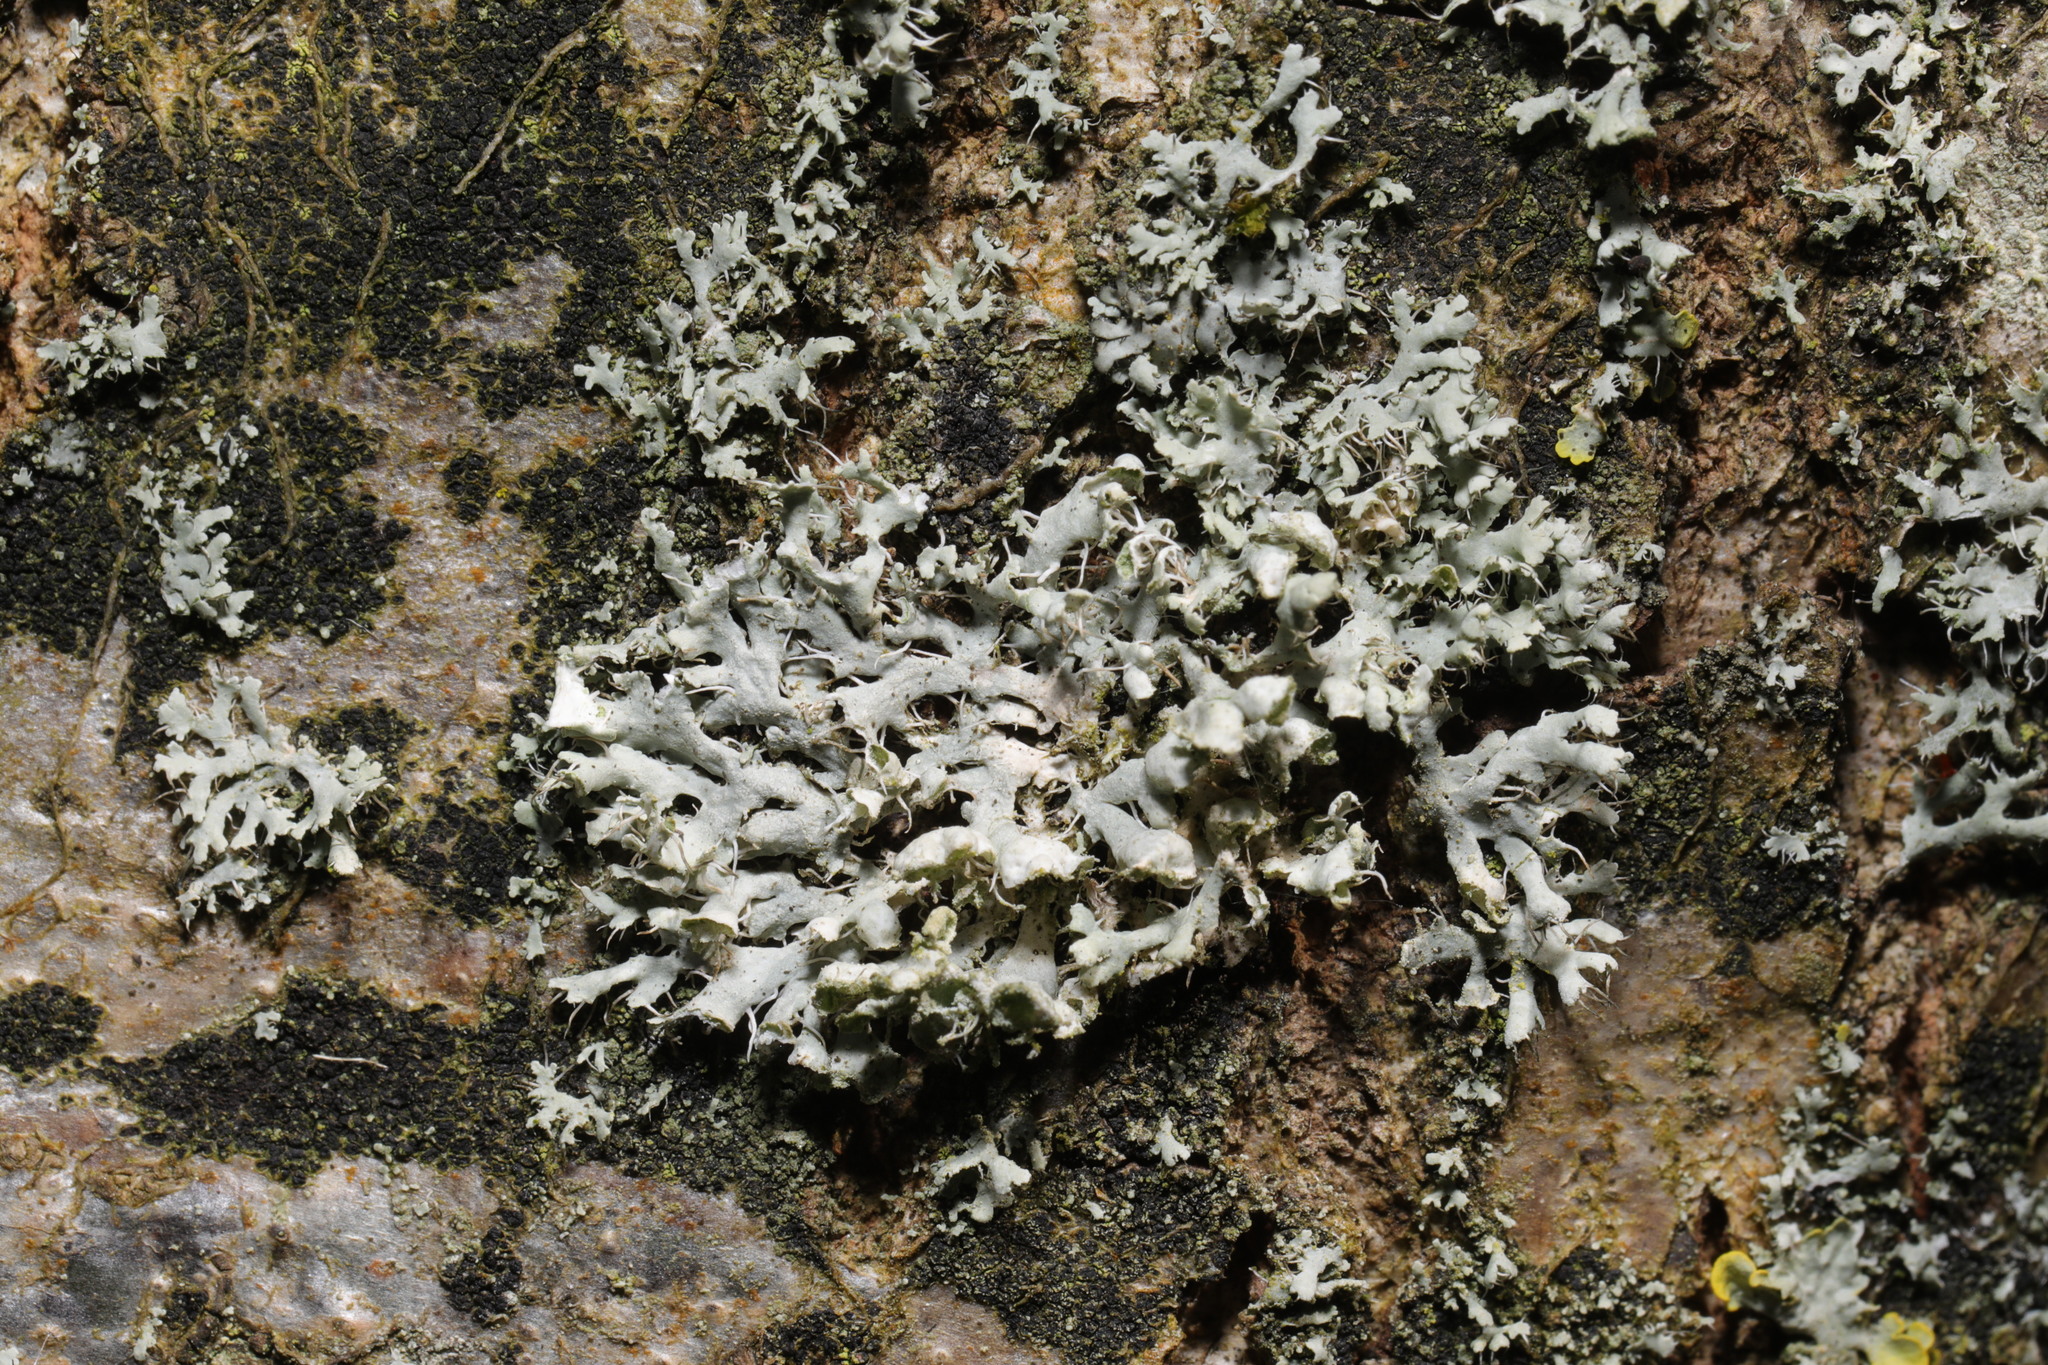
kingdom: Fungi
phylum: Ascomycota
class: Lecanoromycetes
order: Caliciales
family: Physciaceae
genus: Physcia
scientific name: Physcia adscendens
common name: Hooded rosette lichen
